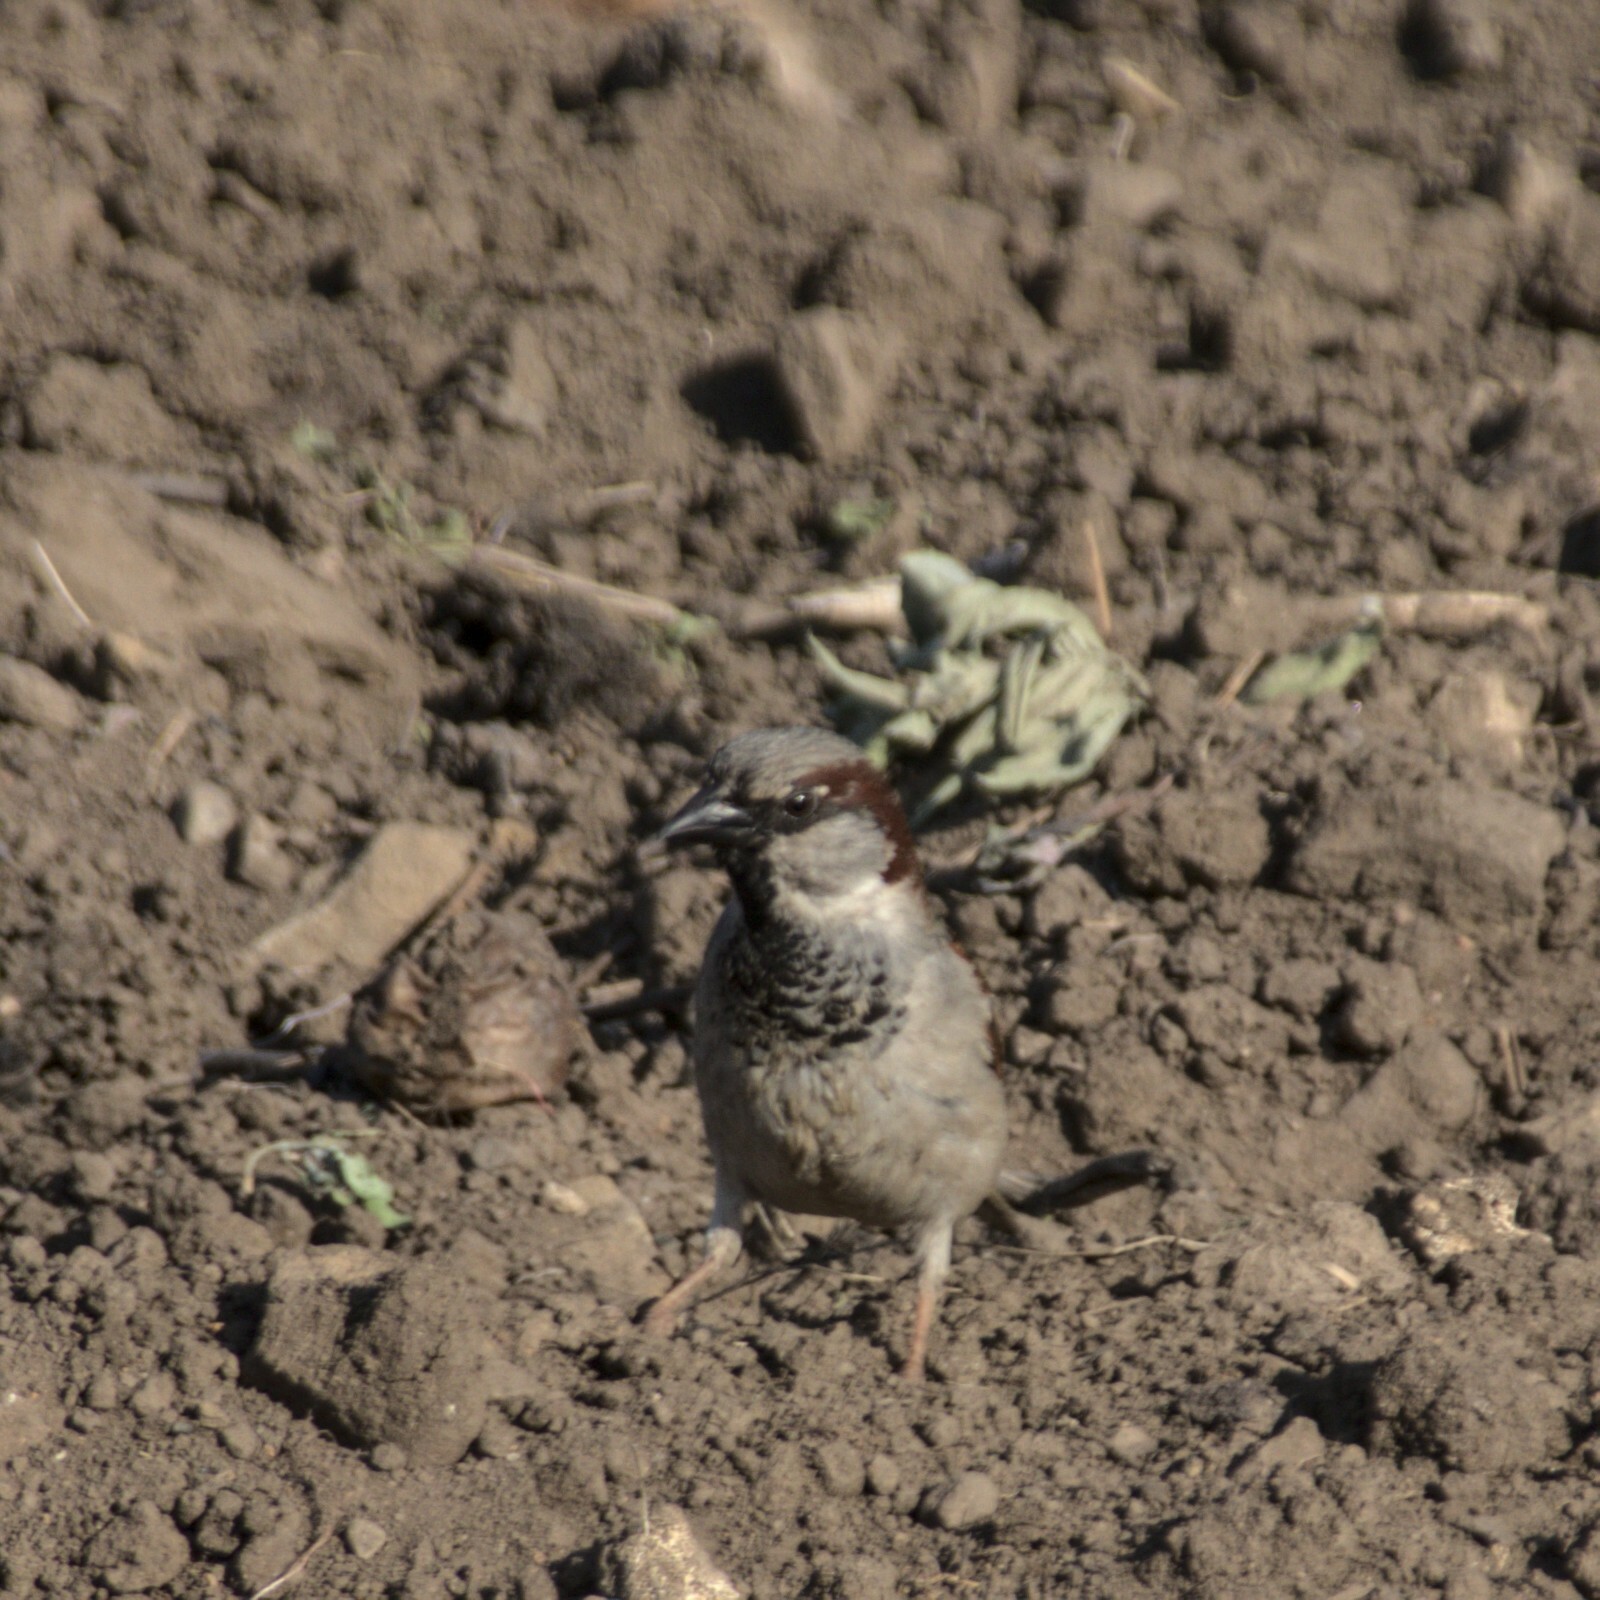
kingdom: Animalia
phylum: Chordata
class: Aves
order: Passeriformes
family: Passeridae
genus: Passer
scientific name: Passer domesticus
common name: House sparrow
